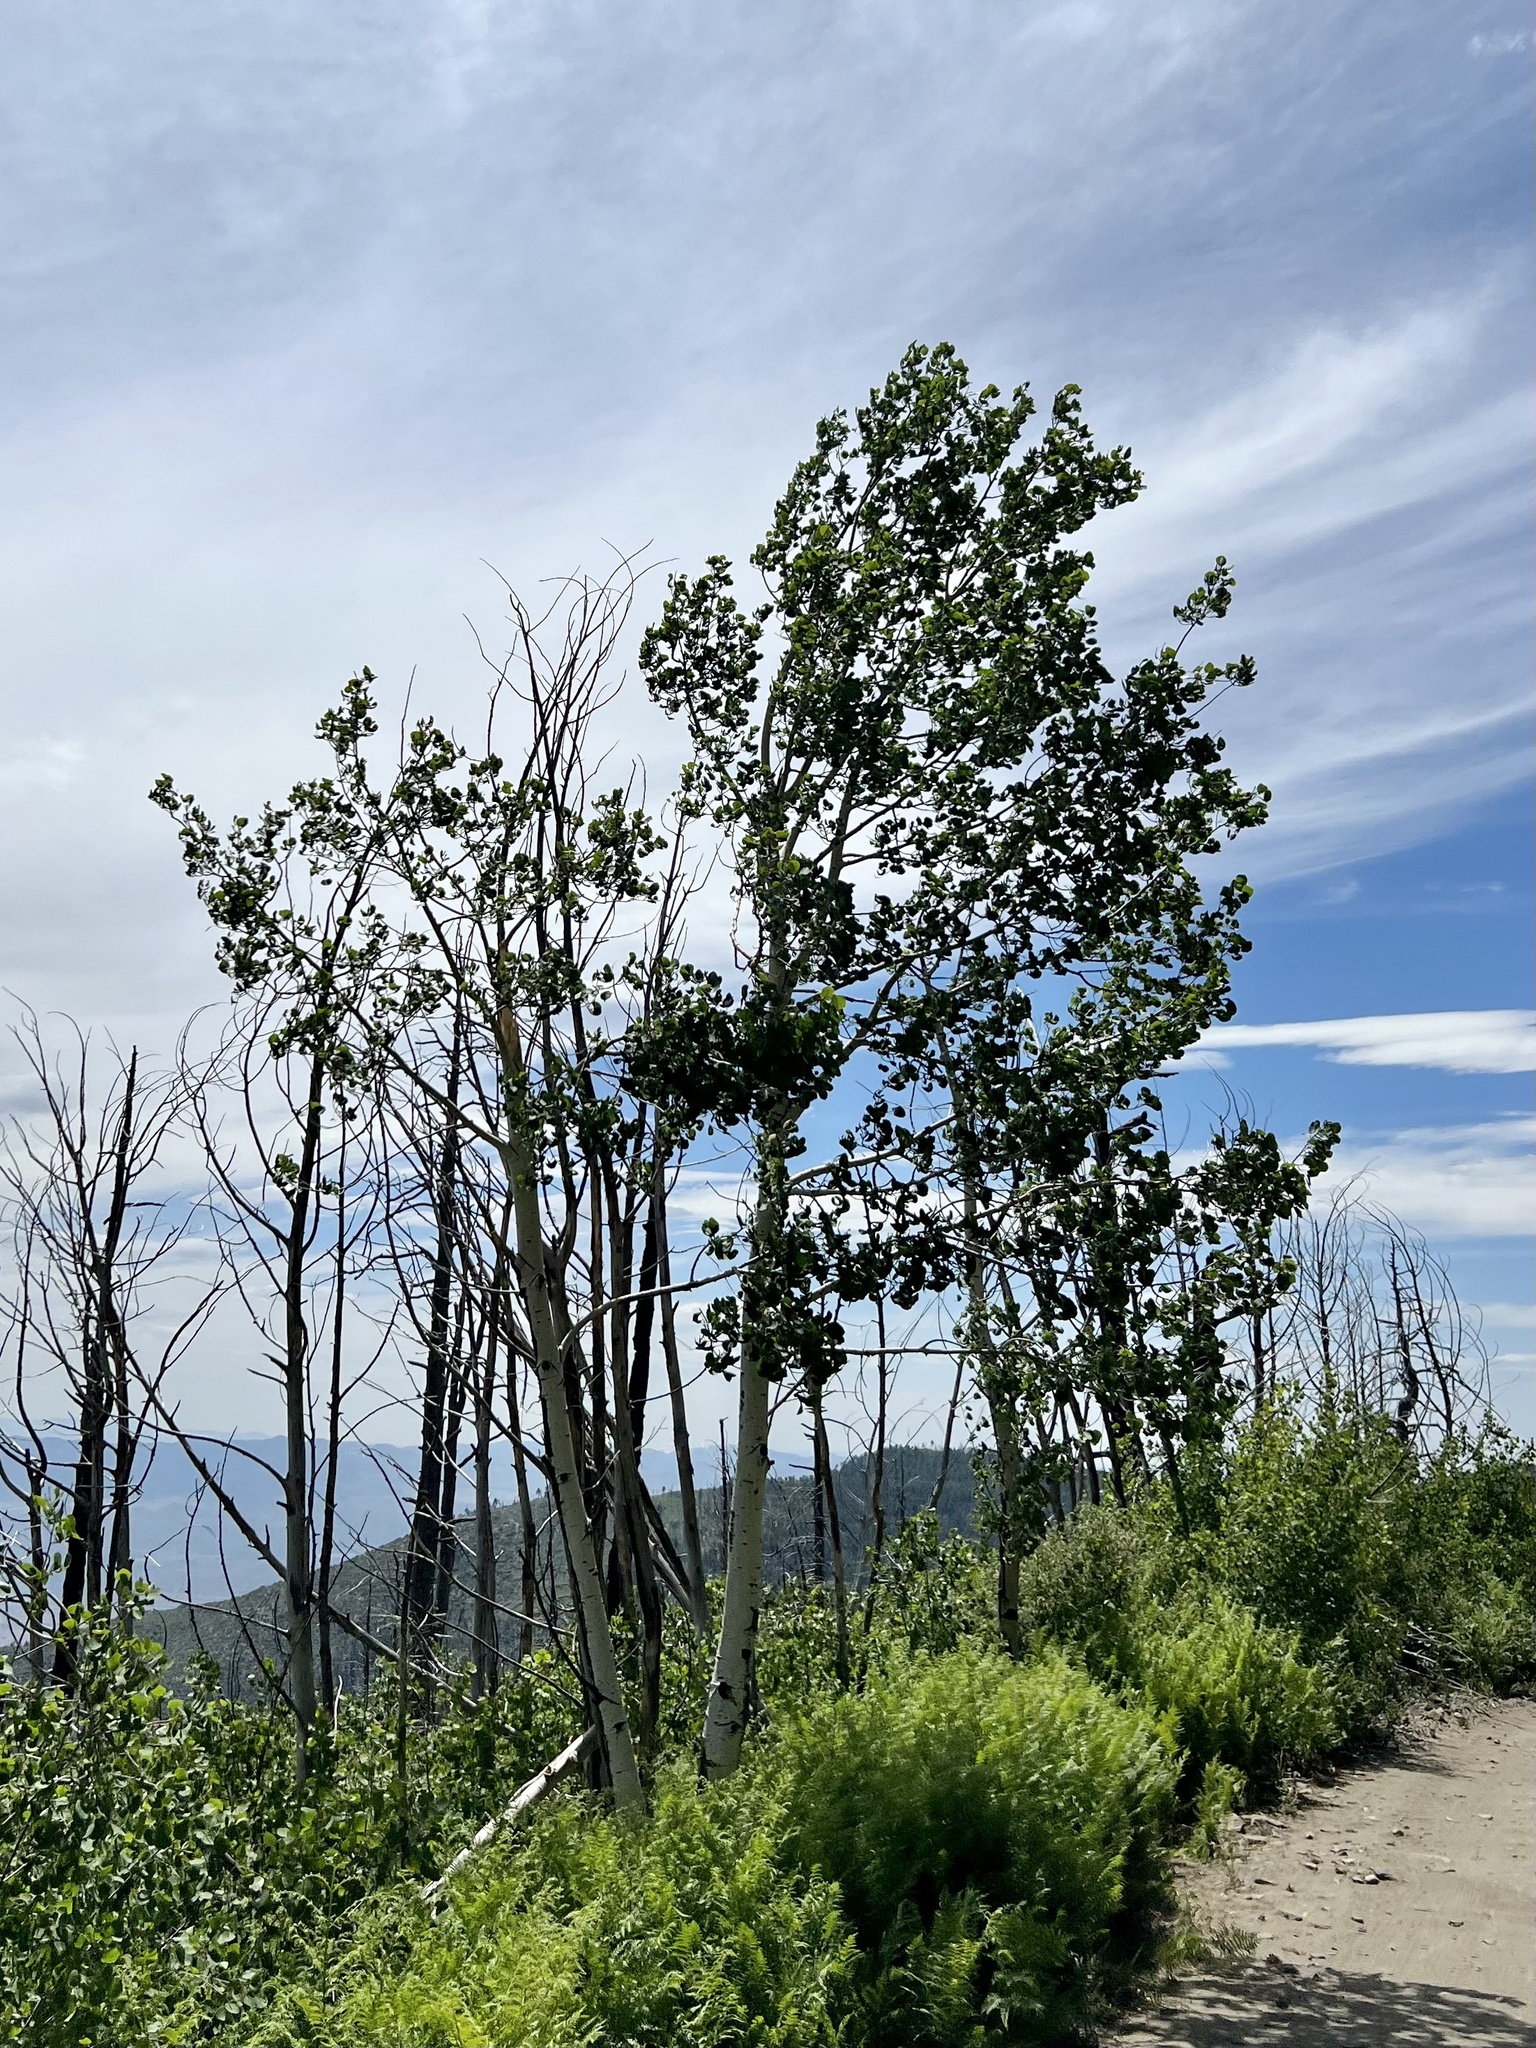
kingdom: Plantae
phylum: Tracheophyta
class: Magnoliopsida
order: Malpighiales
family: Salicaceae
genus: Populus
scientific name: Populus tremuloides
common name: Quaking aspen
